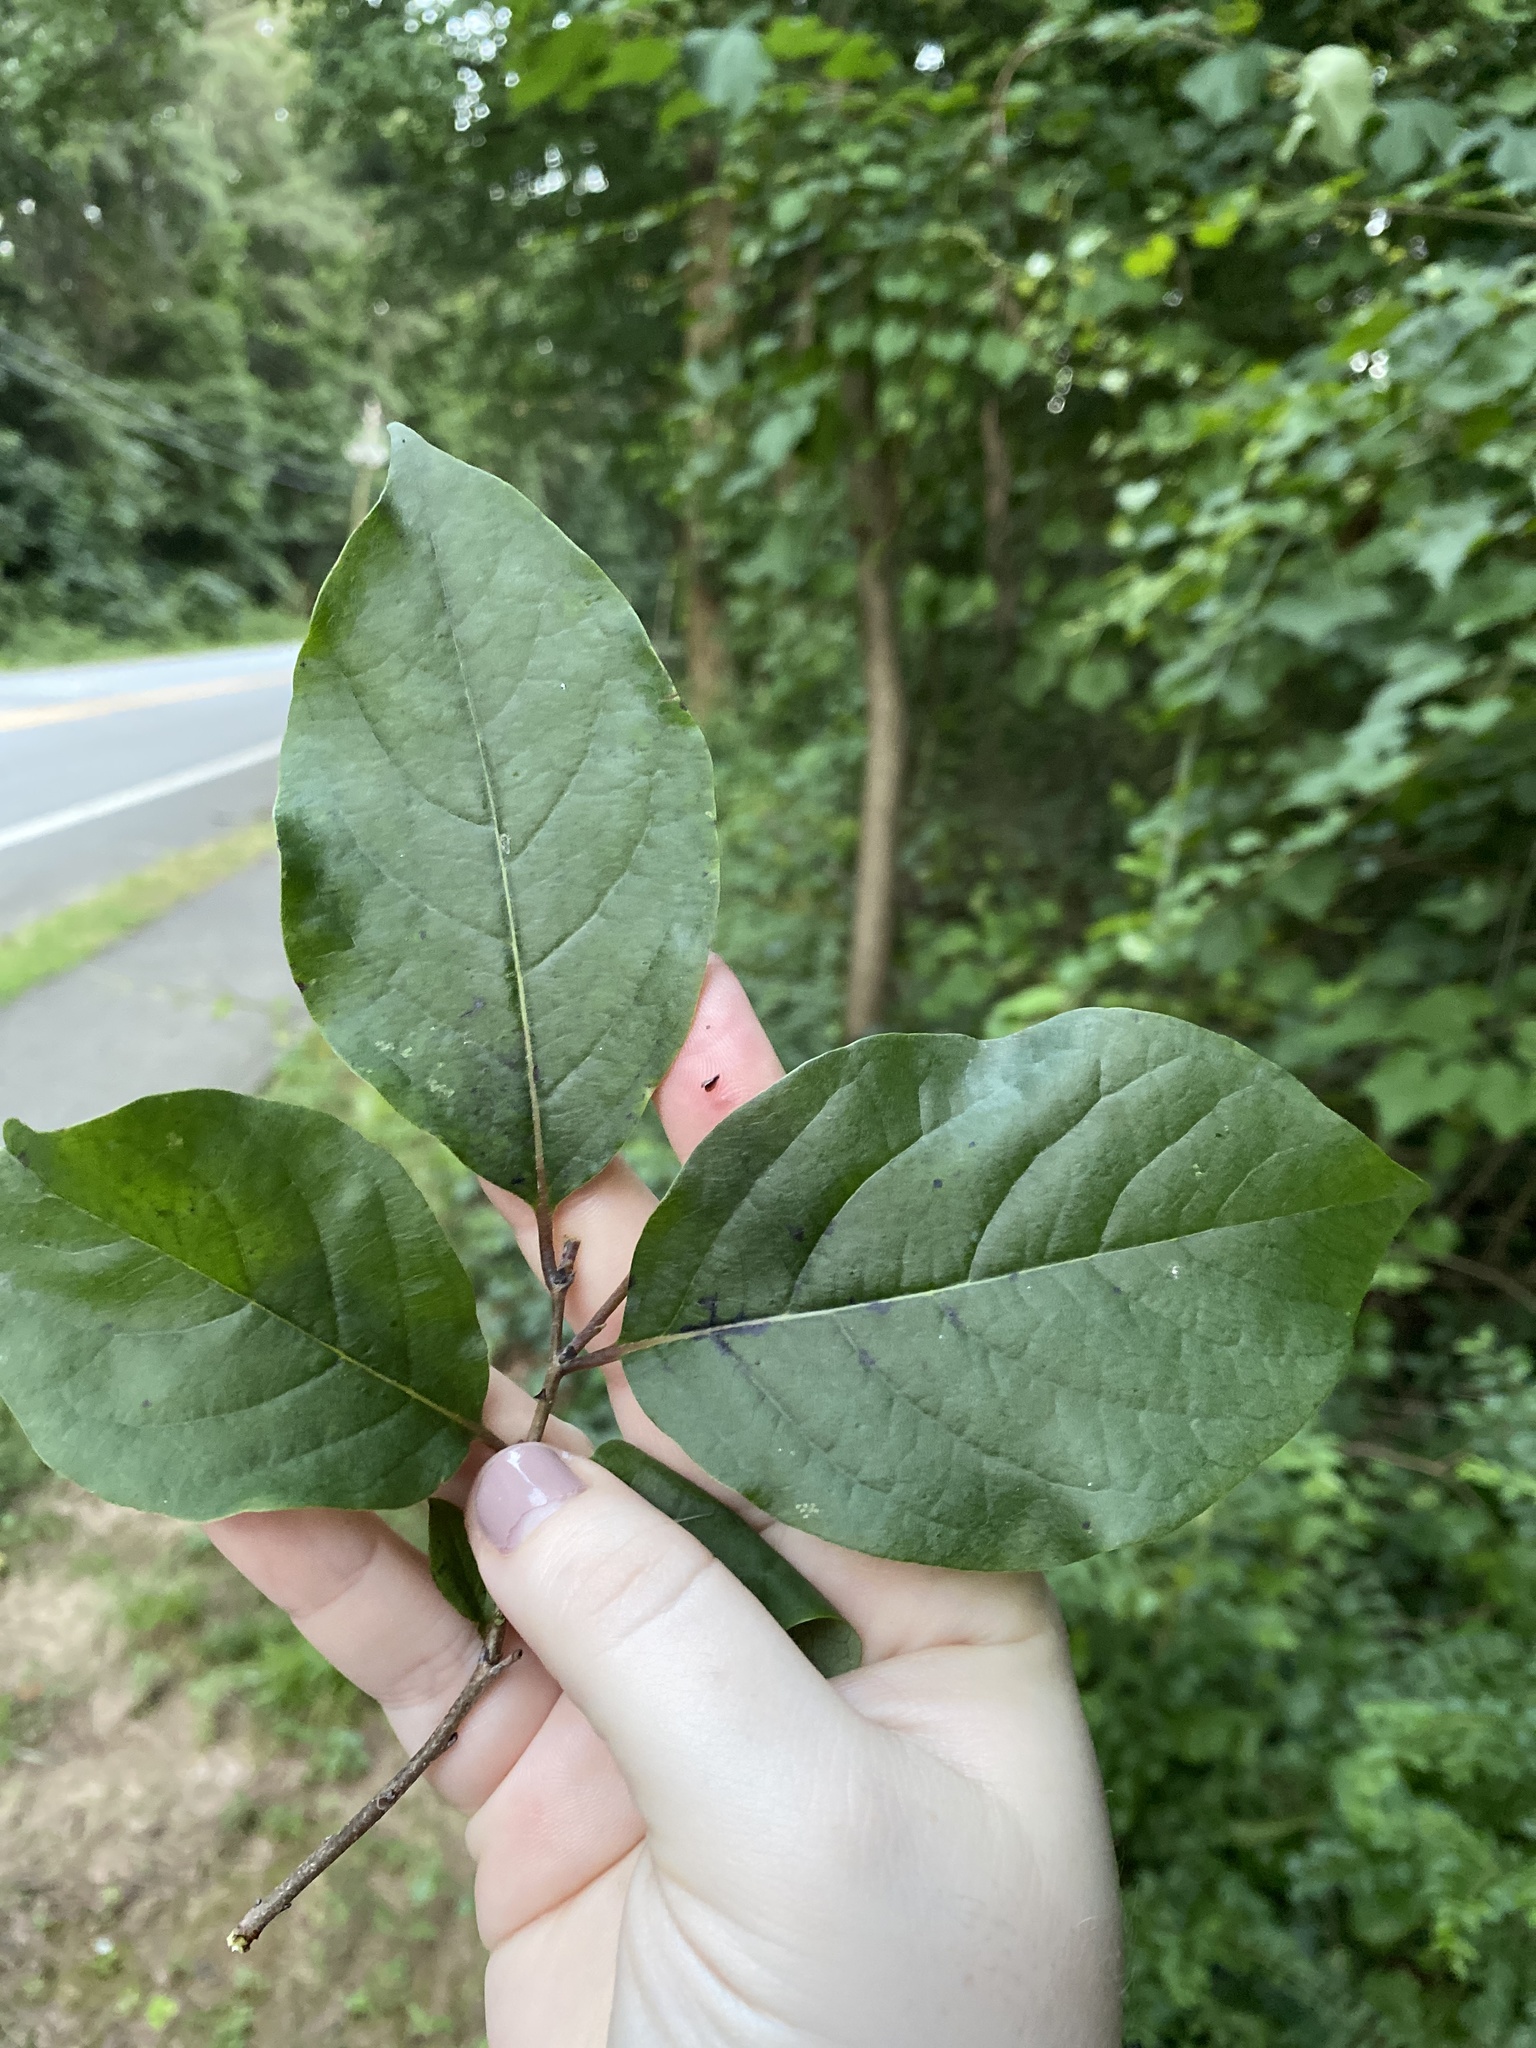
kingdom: Plantae
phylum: Tracheophyta
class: Magnoliopsida
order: Cornales
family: Nyssaceae
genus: Nyssa
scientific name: Nyssa sylvatica
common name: Black tupelo
